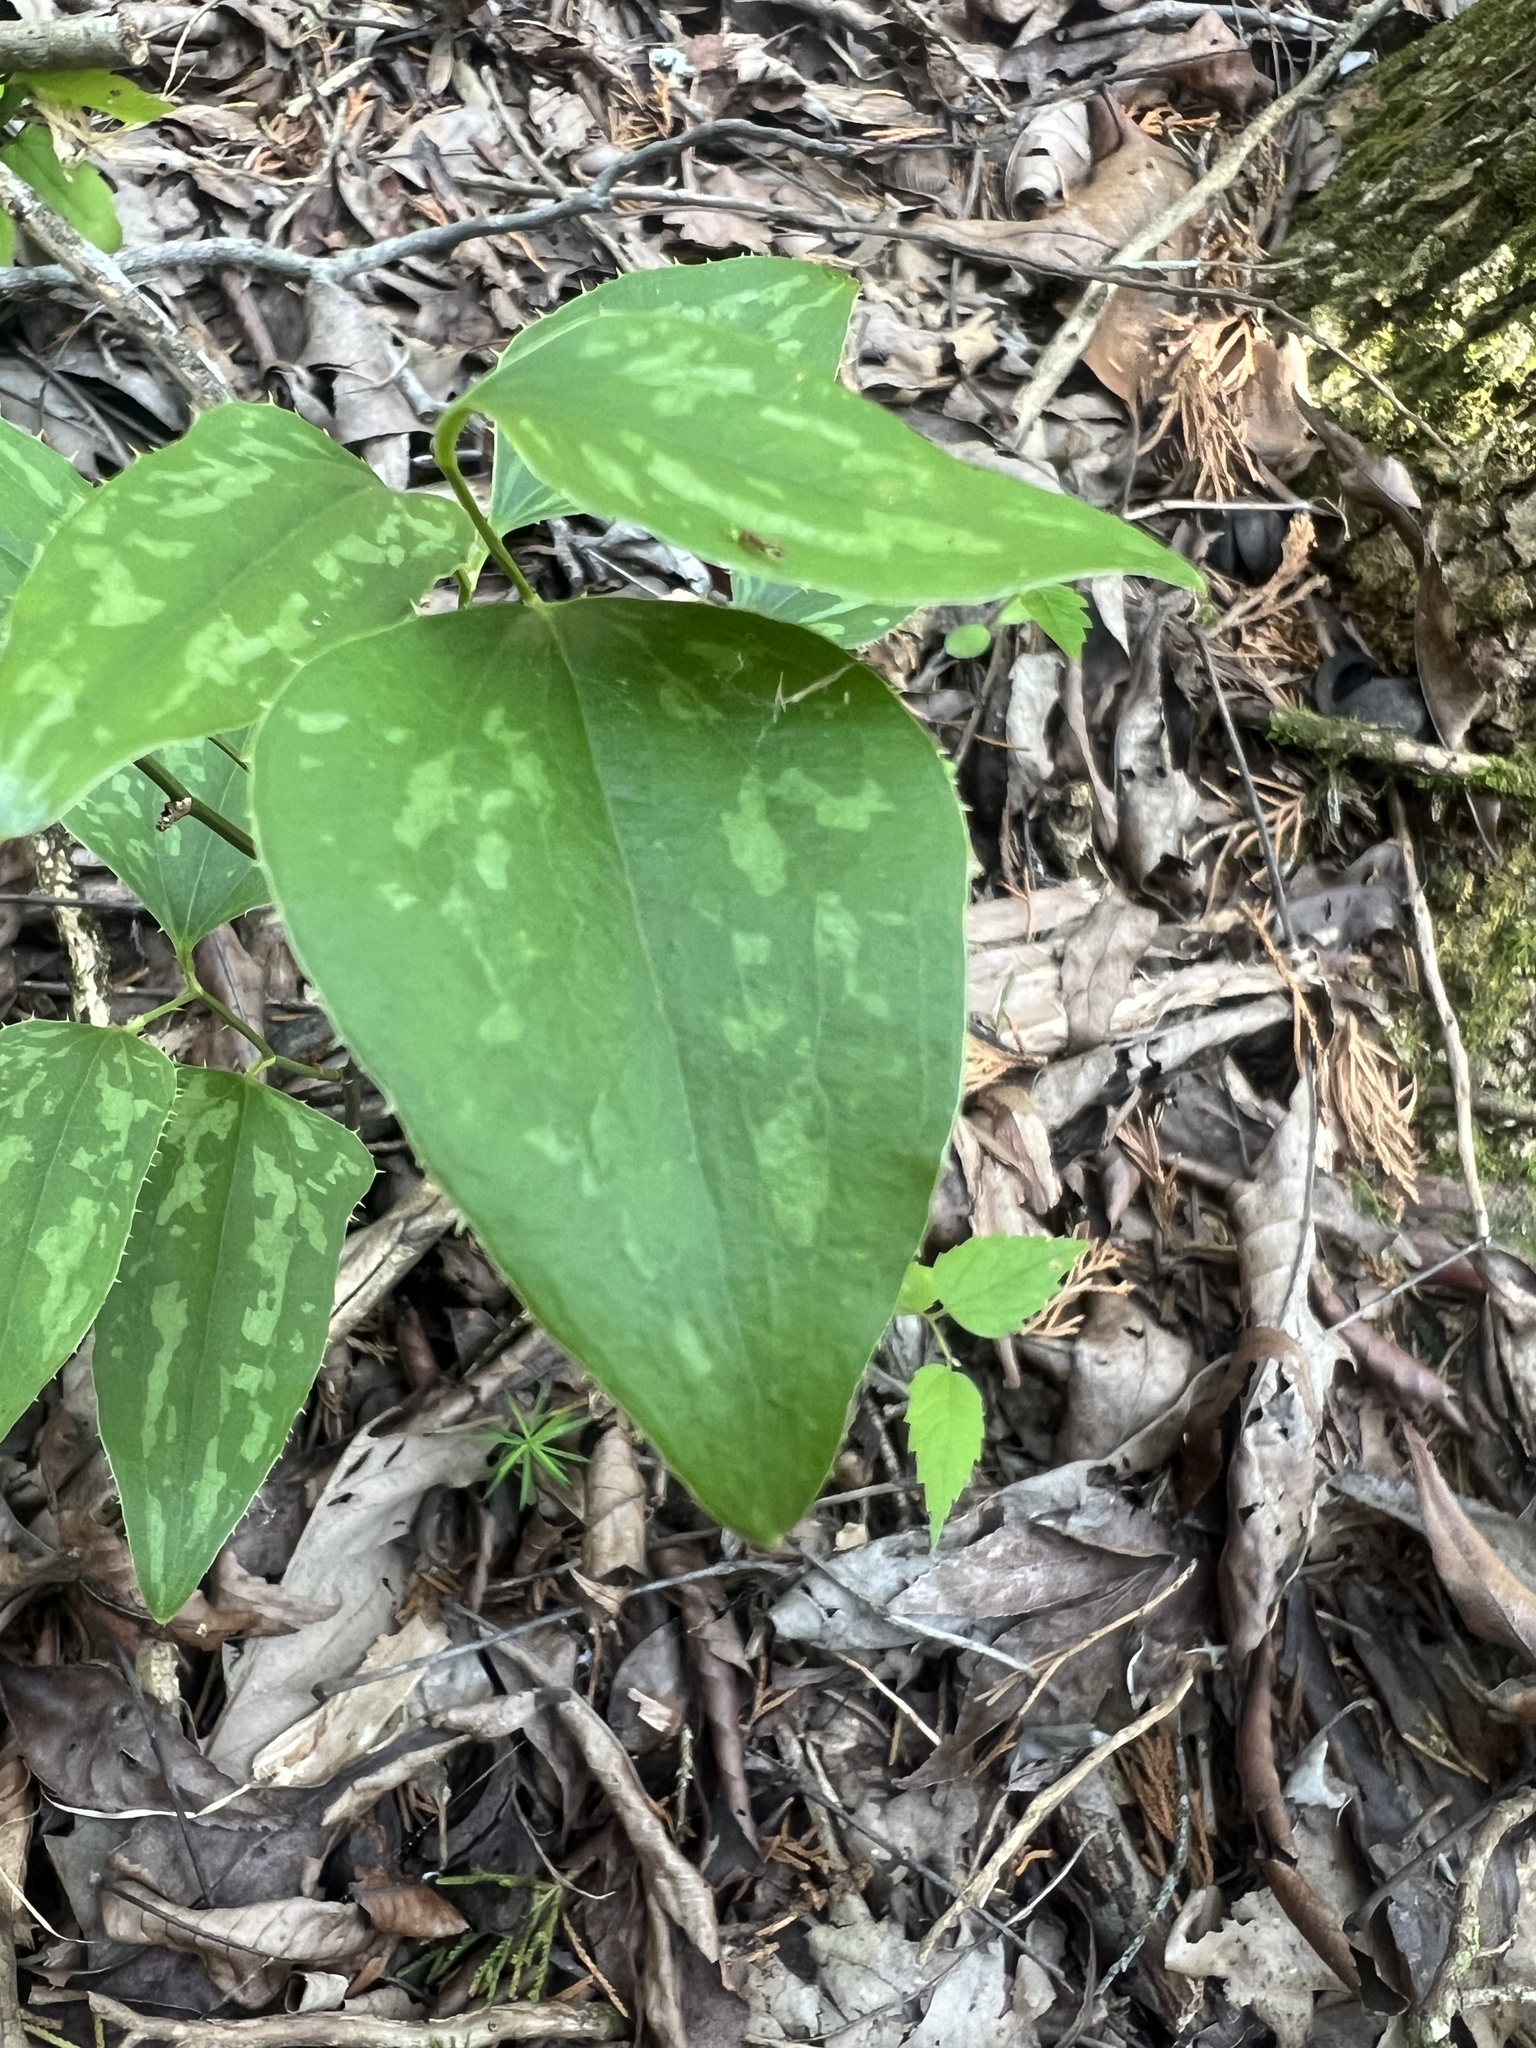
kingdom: Plantae
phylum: Tracheophyta
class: Liliopsida
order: Liliales
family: Smilacaceae
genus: Smilax
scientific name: Smilax bona-nox
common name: Catbrier
